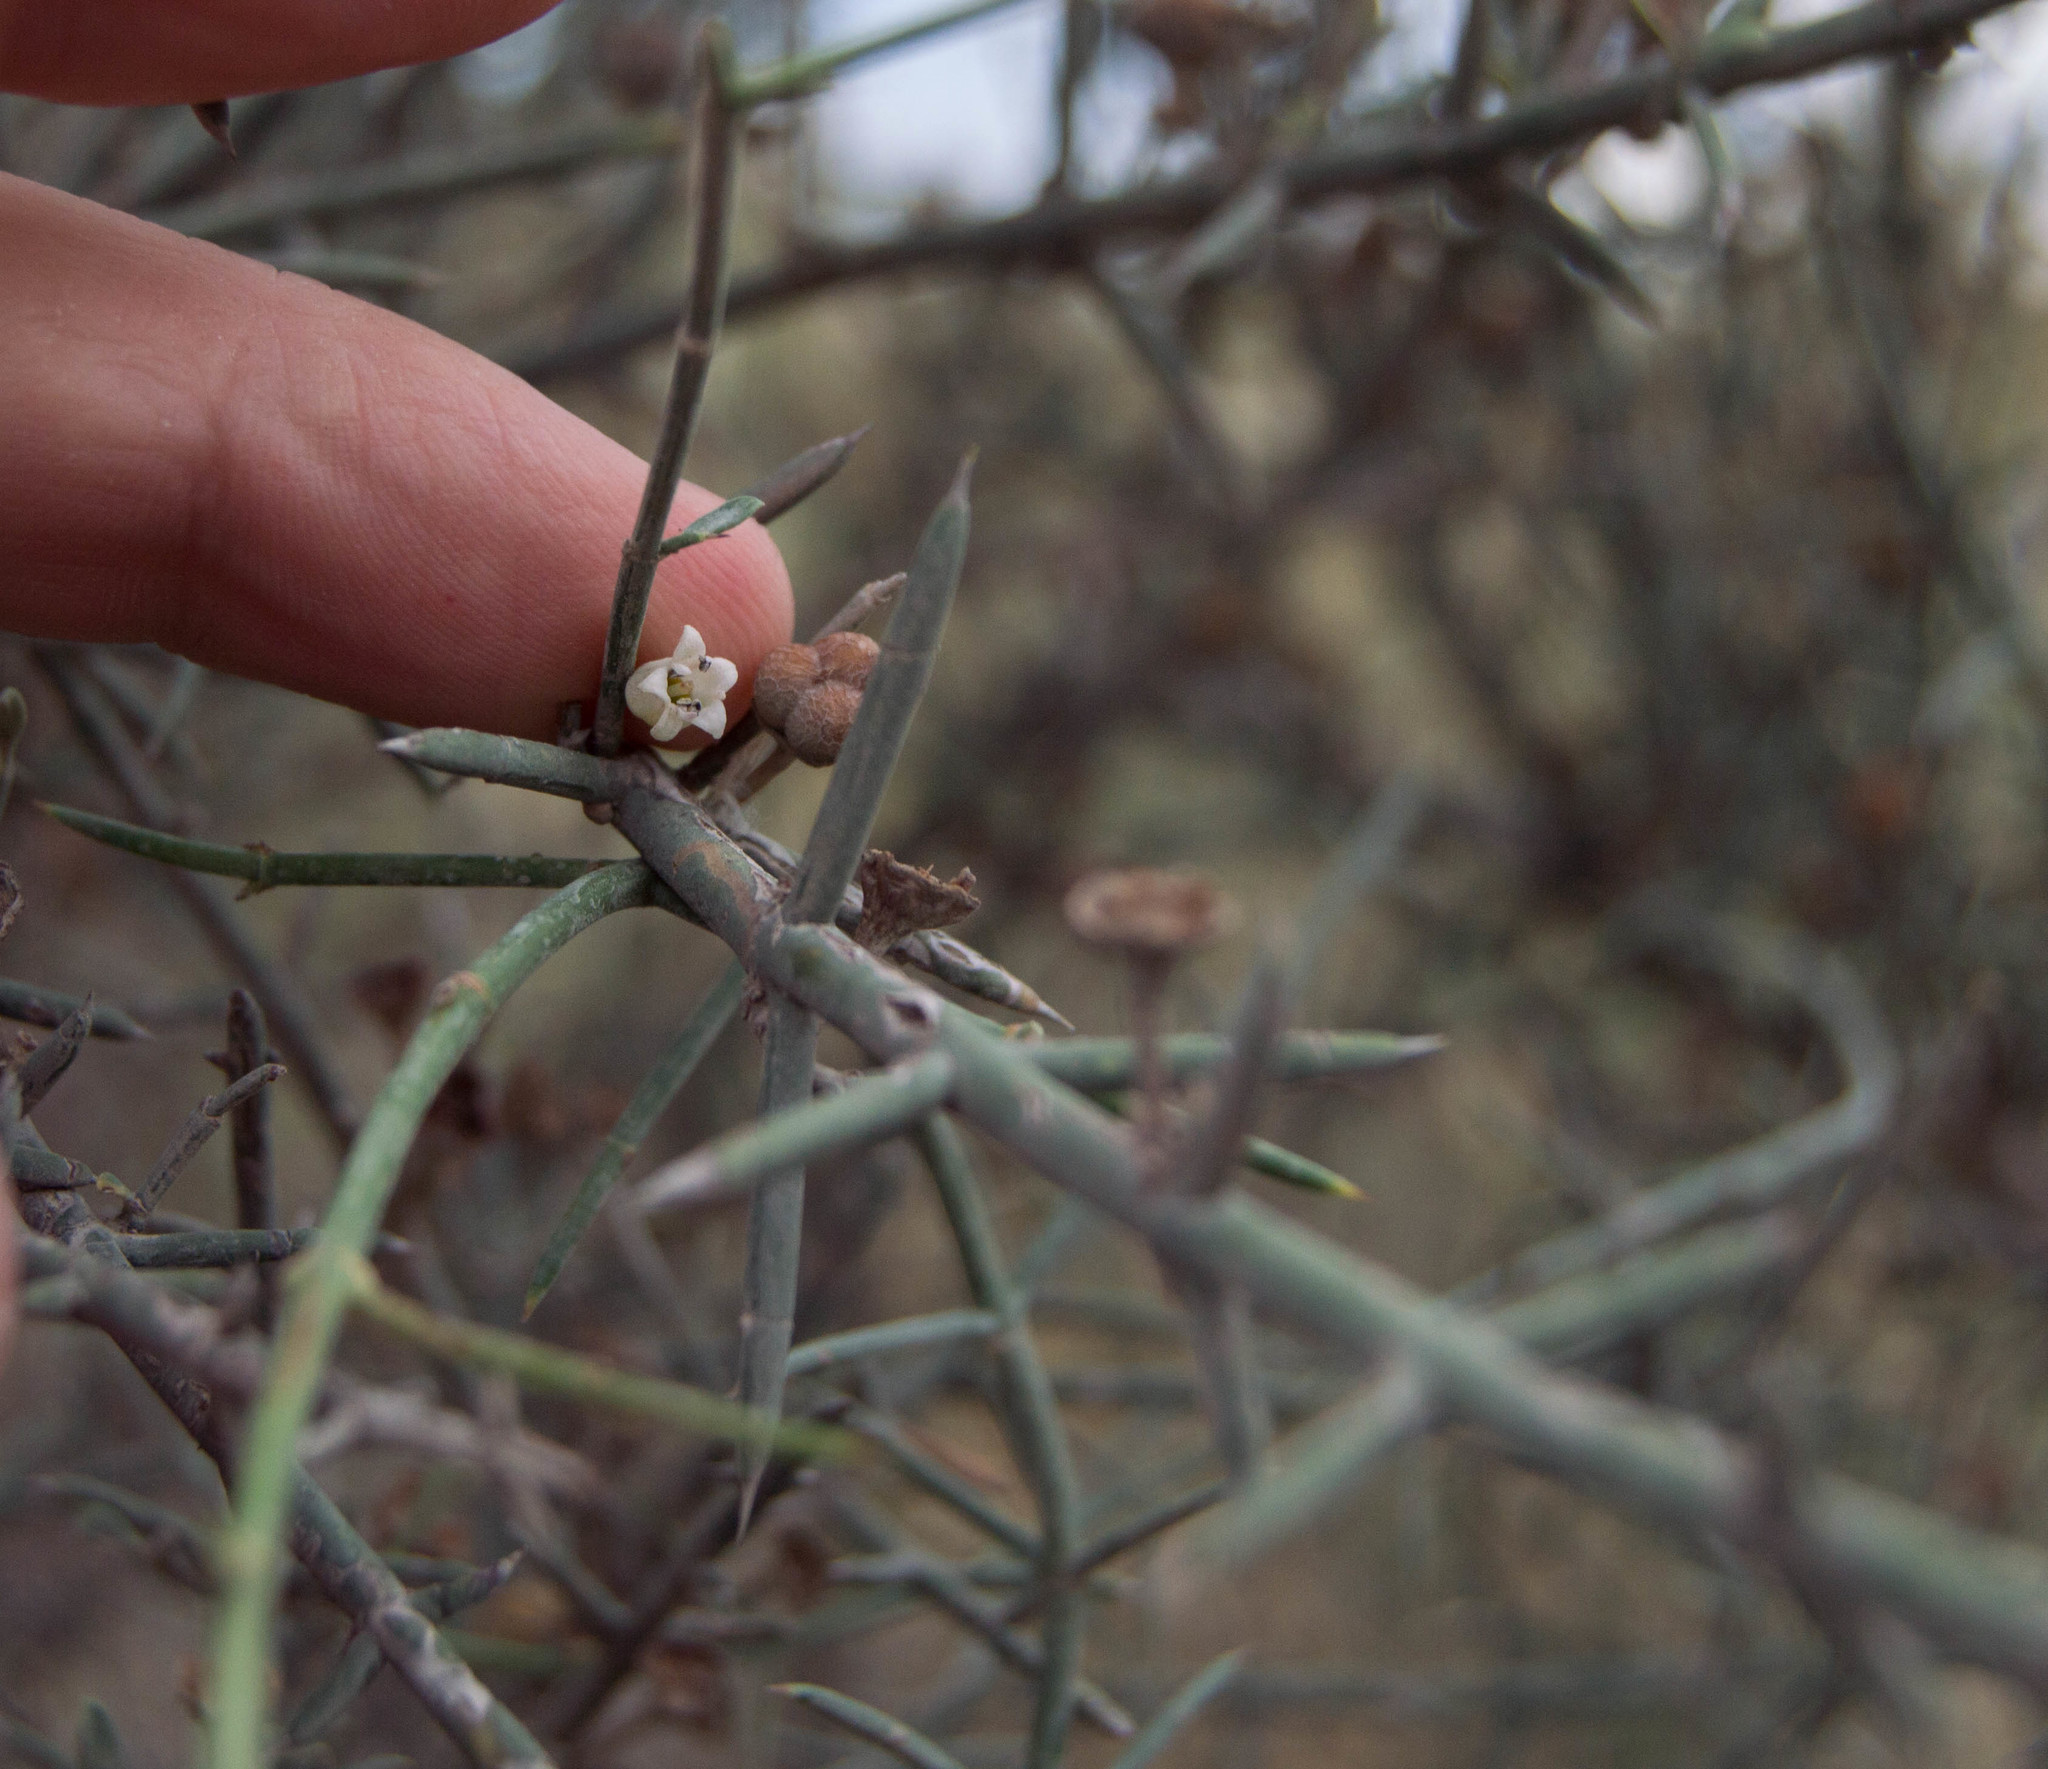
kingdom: Plantae
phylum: Tracheophyta
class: Magnoliopsida
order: Rosales
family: Rhamnaceae
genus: Discaria
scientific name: Discaria americana
